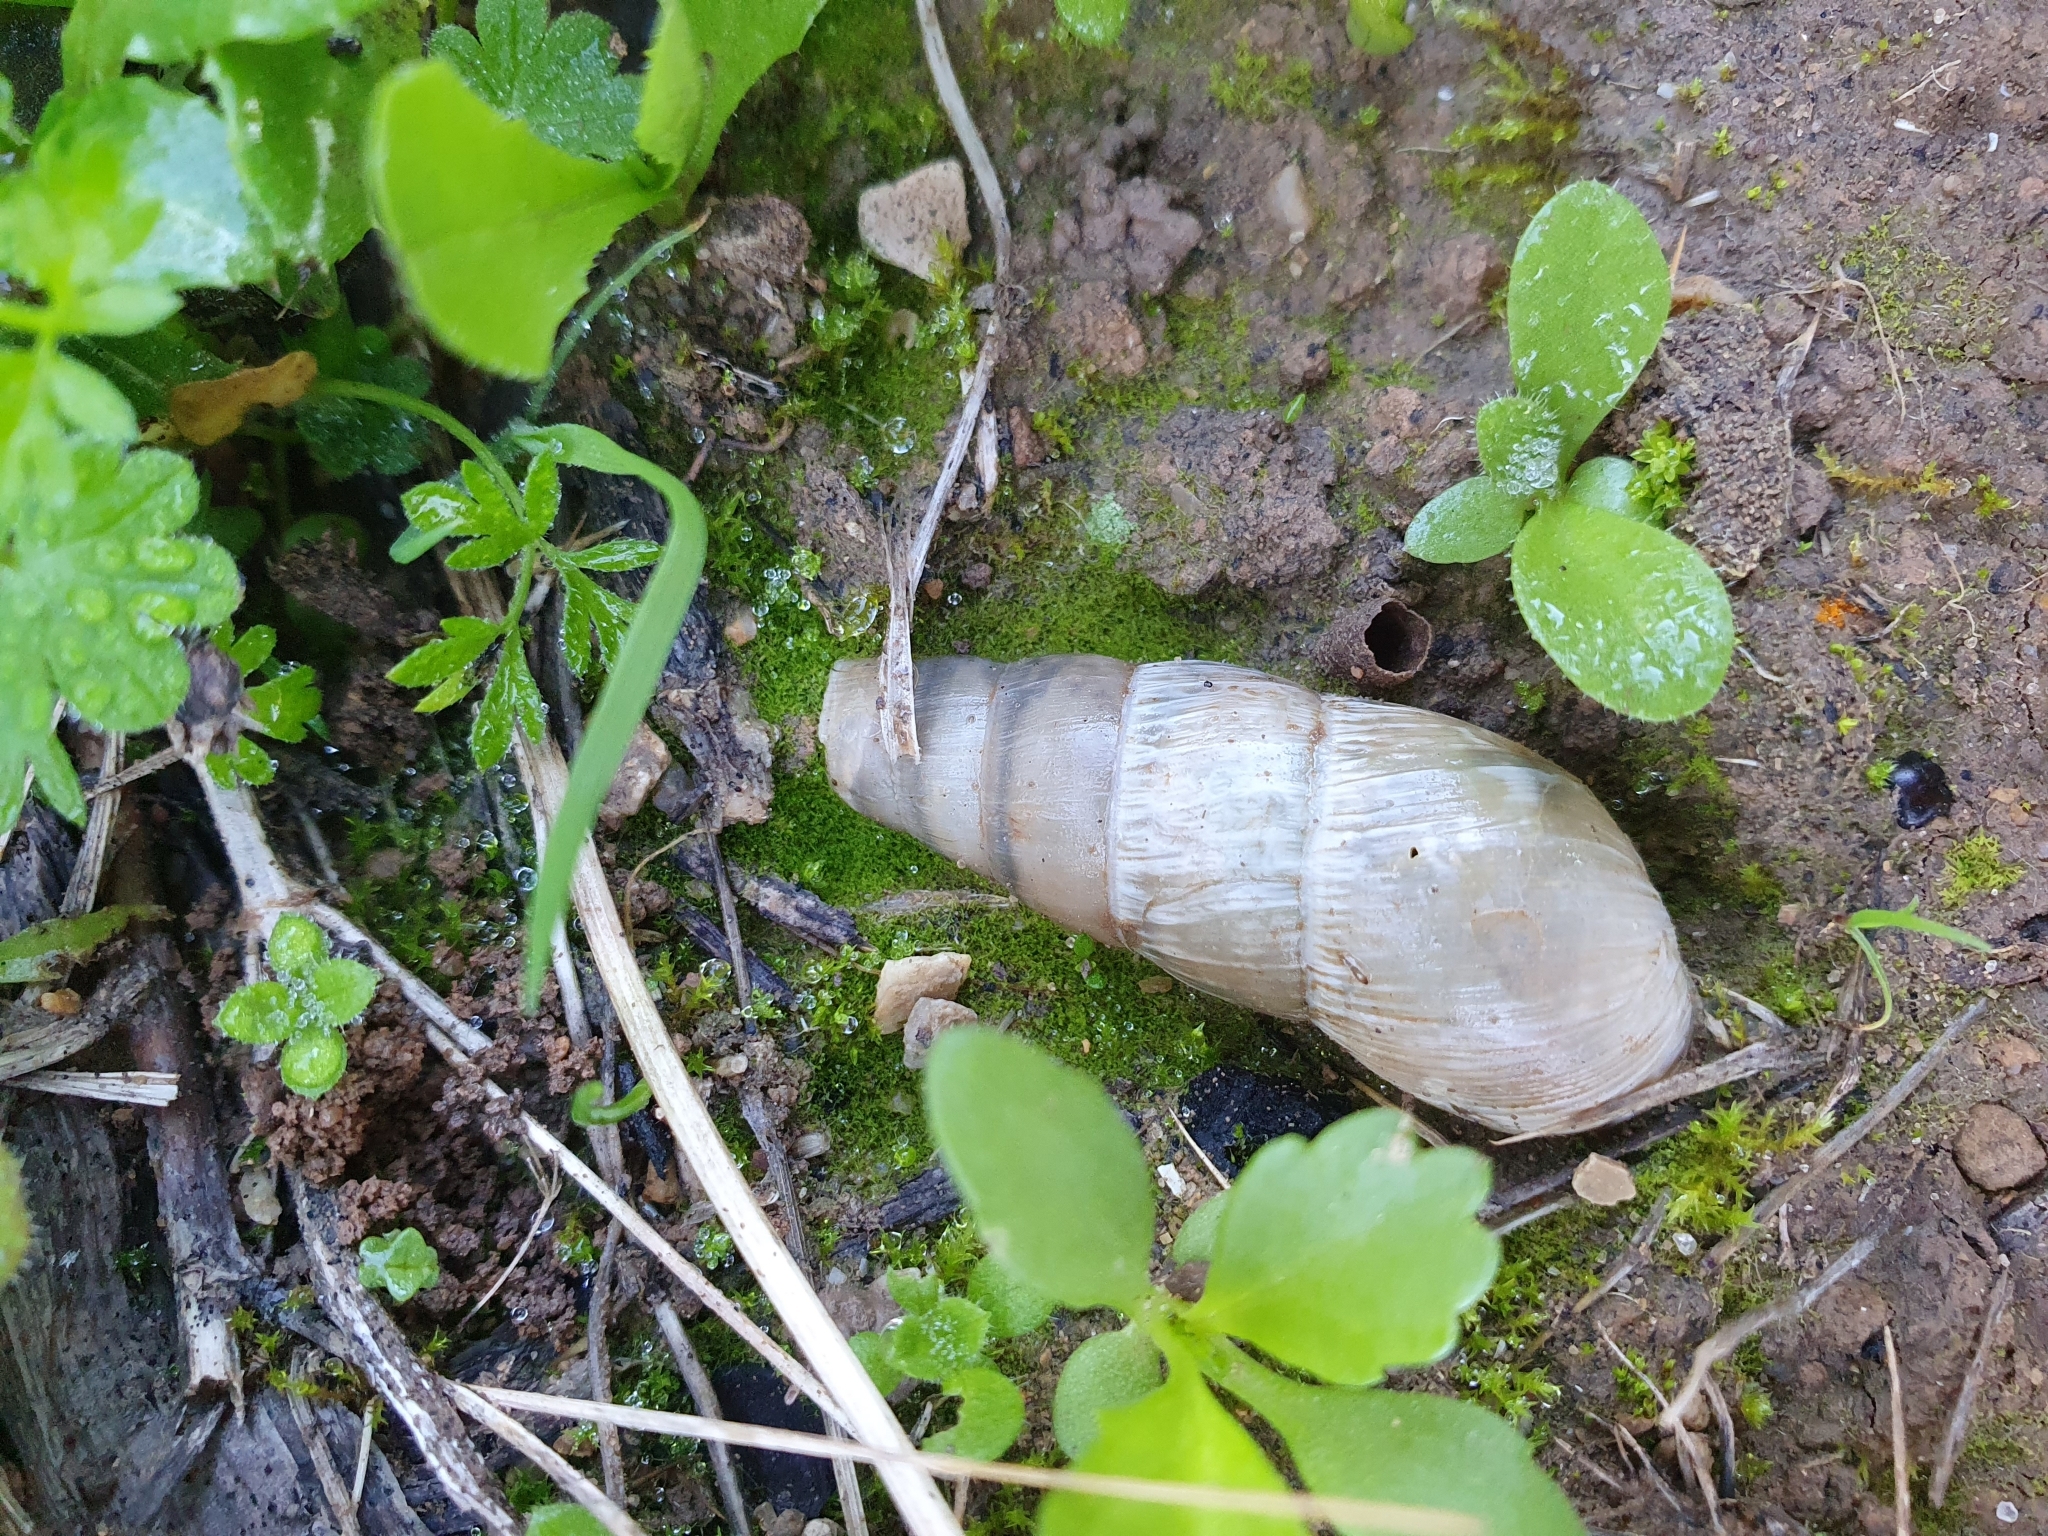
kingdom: Animalia
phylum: Mollusca
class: Gastropoda
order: Stylommatophora
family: Achatinidae
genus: Rumina
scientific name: Rumina decollata
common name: Decollate snail
